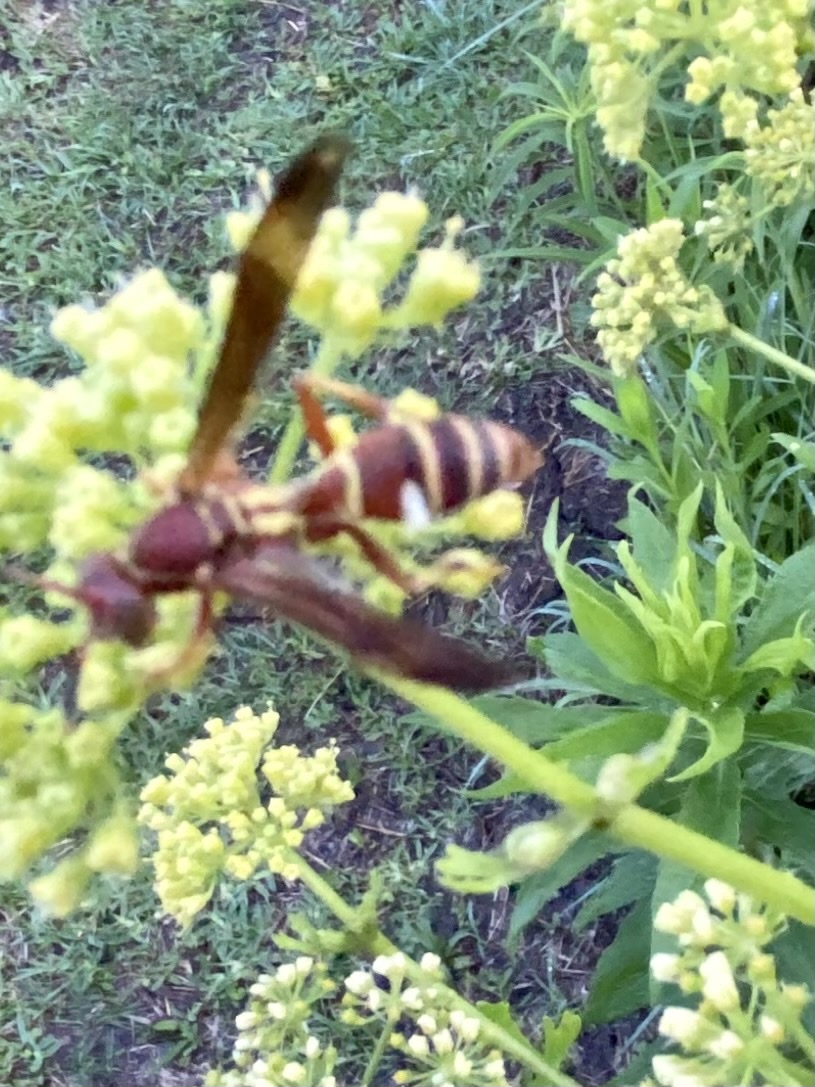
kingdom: Animalia
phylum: Arthropoda
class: Insecta
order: Hymenoptera
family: Eumenidae
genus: Polistes
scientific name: Polistes dorsalis
